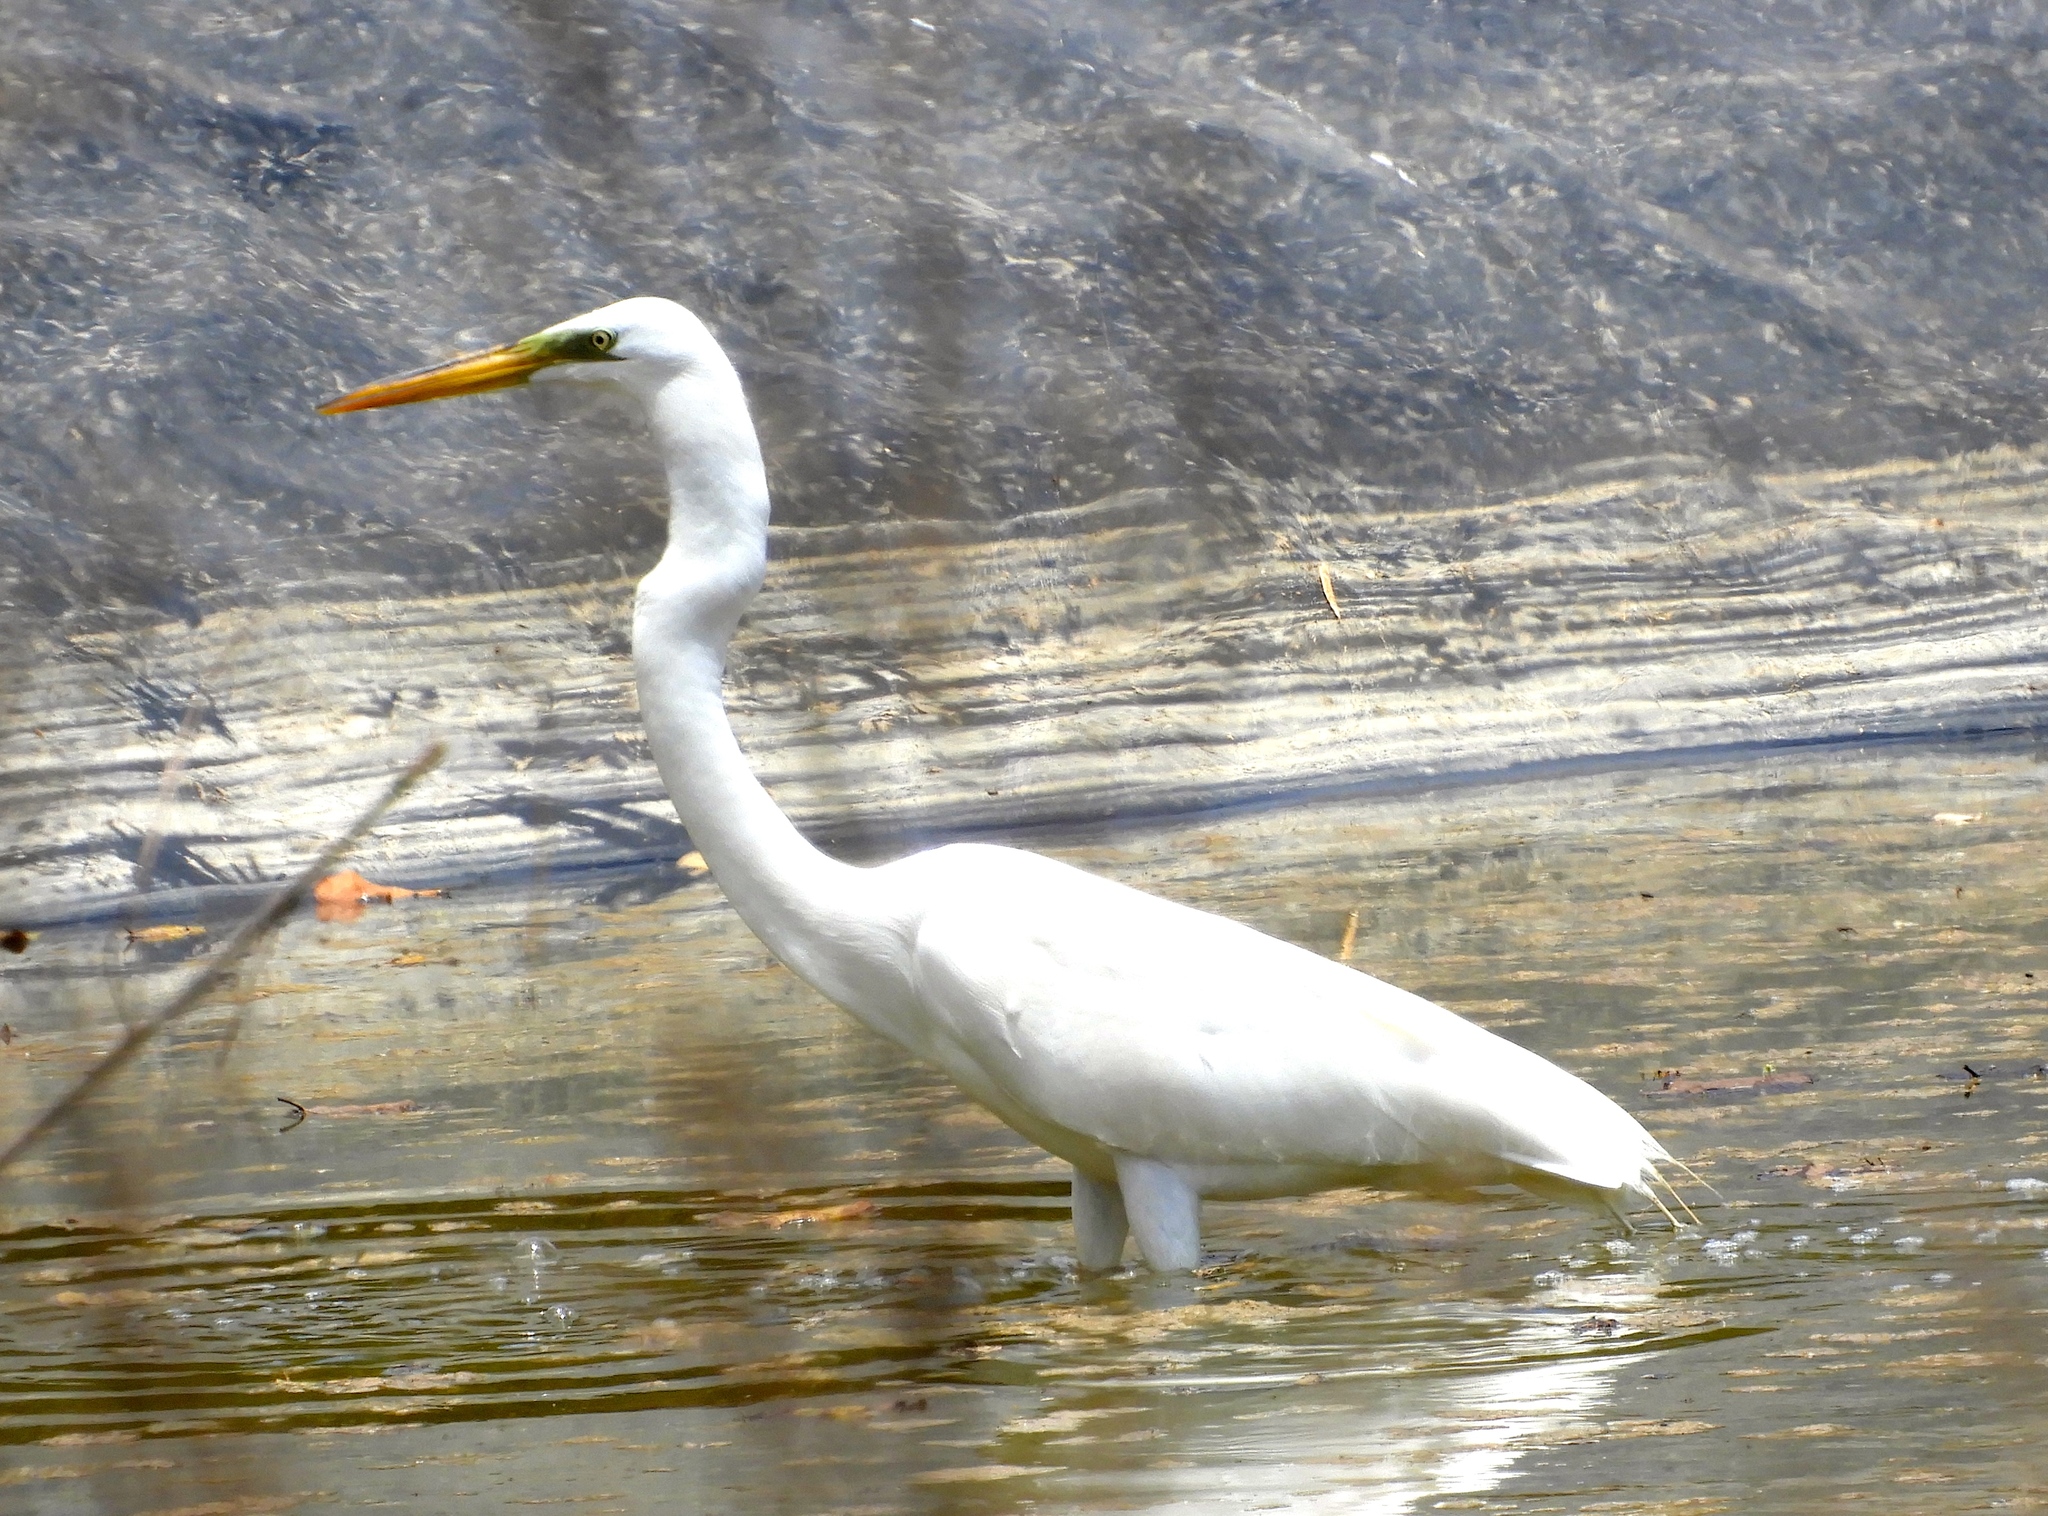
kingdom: Animalia
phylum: Chordata
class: Aves
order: Pelecaniformes
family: Ardeidae
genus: Ardea
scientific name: Ardea alba
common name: Great egret
